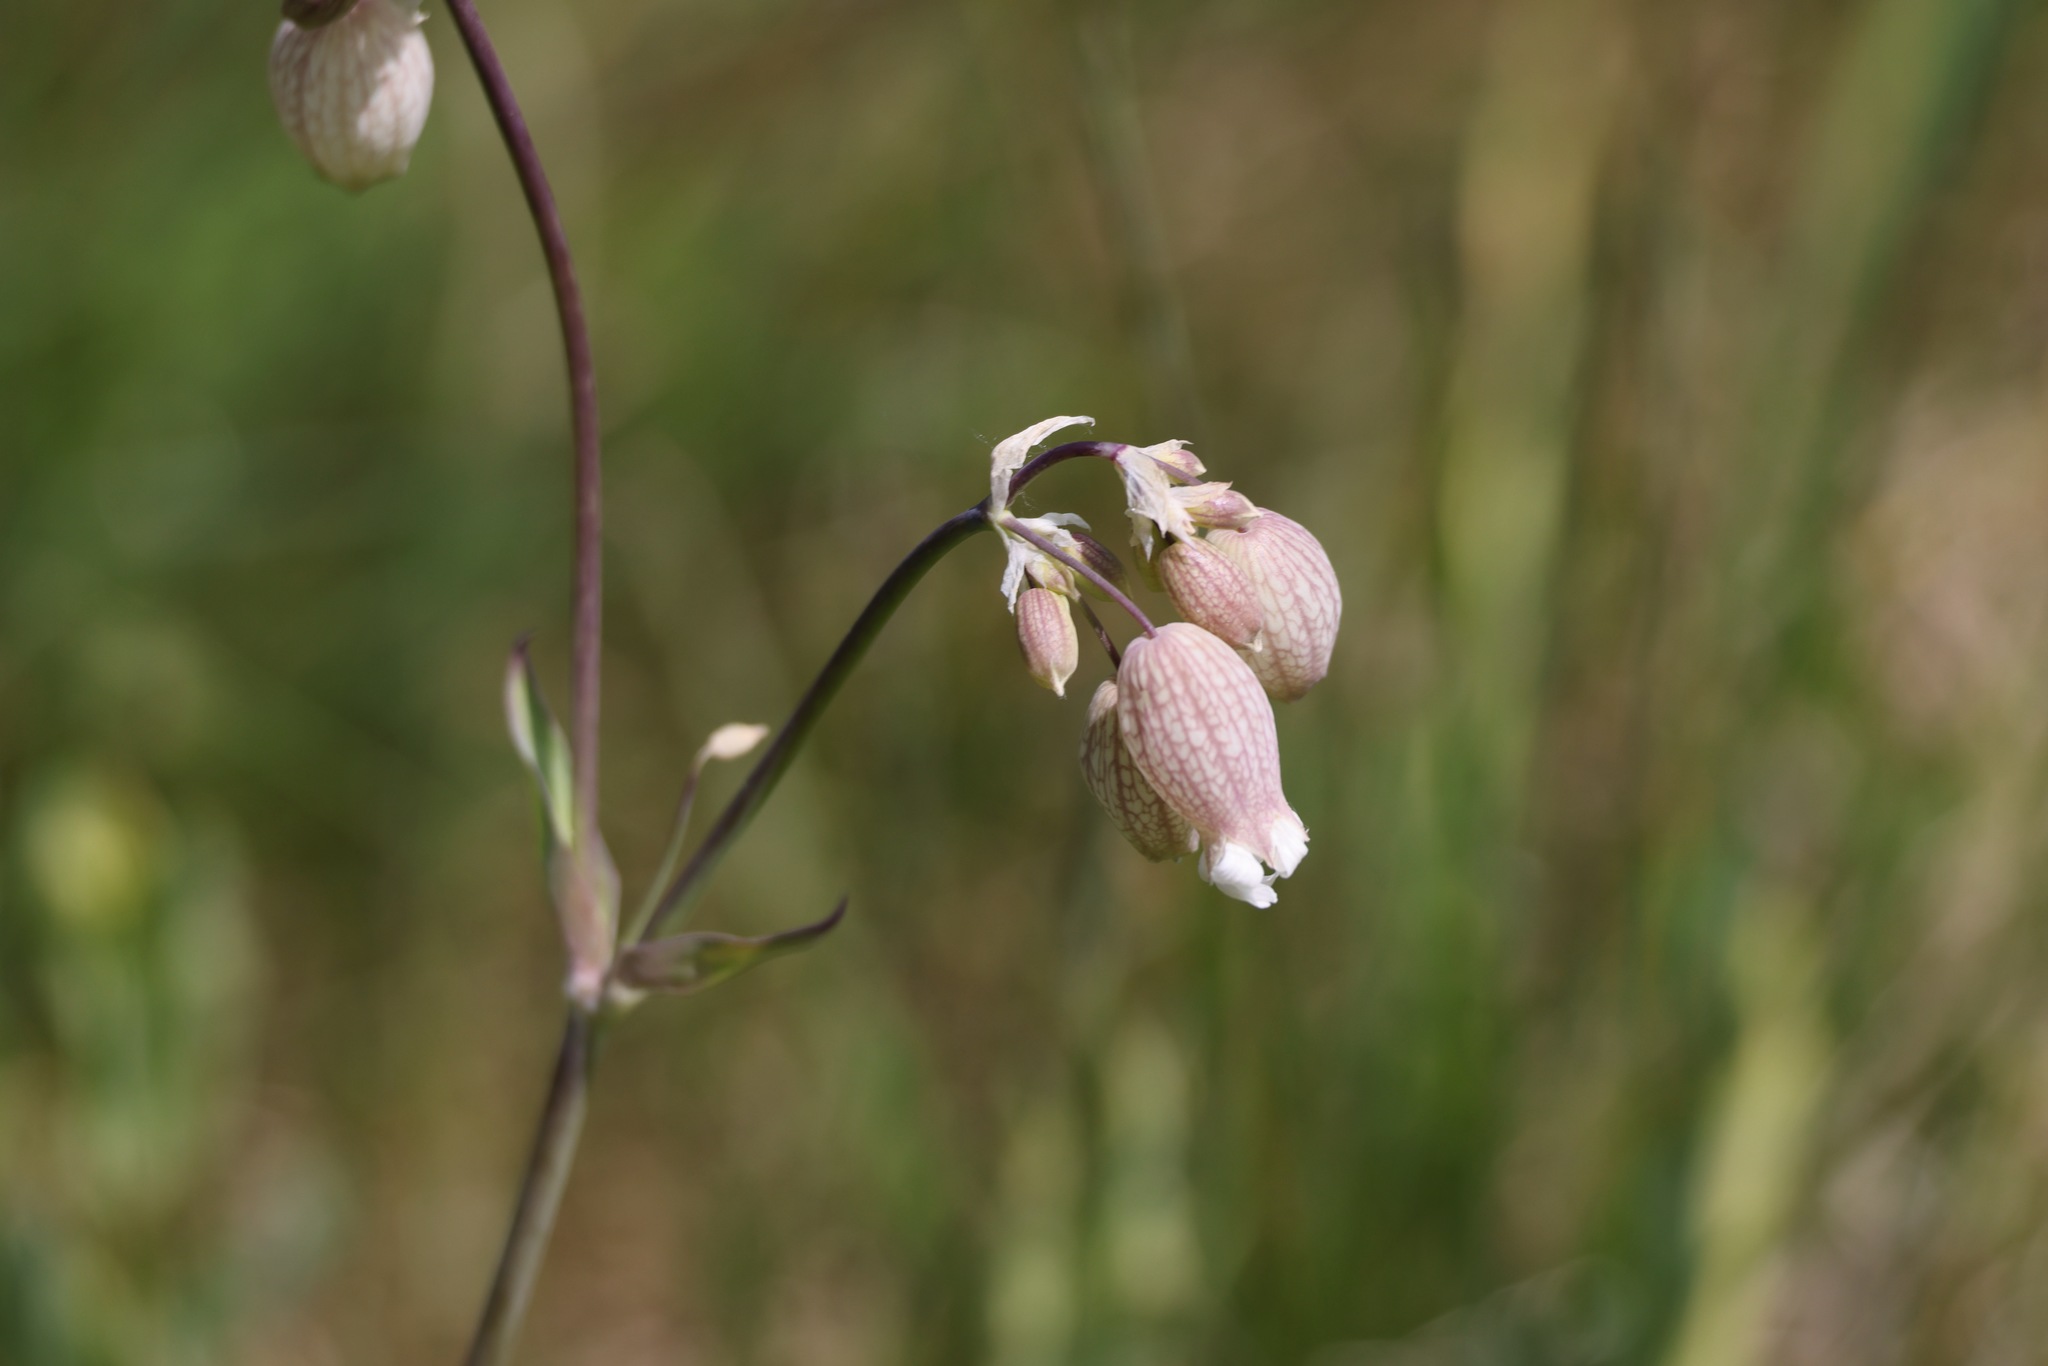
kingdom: Plantae
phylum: Tracheophyta
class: Magnoliopsida
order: Caryophyllales
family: Caryophyllaceae
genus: Silene
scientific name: Silene vulgaris
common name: Bladder campion
